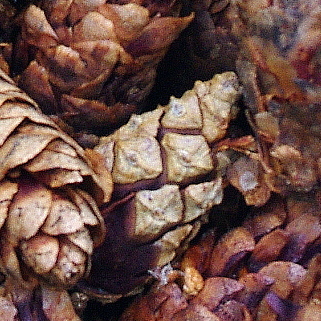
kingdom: Plantae
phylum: Tracheophyta
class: Pinopsida
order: Pinales
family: Pinaceae
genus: Pinus
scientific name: Pinus sylvestris
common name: Scots pine
